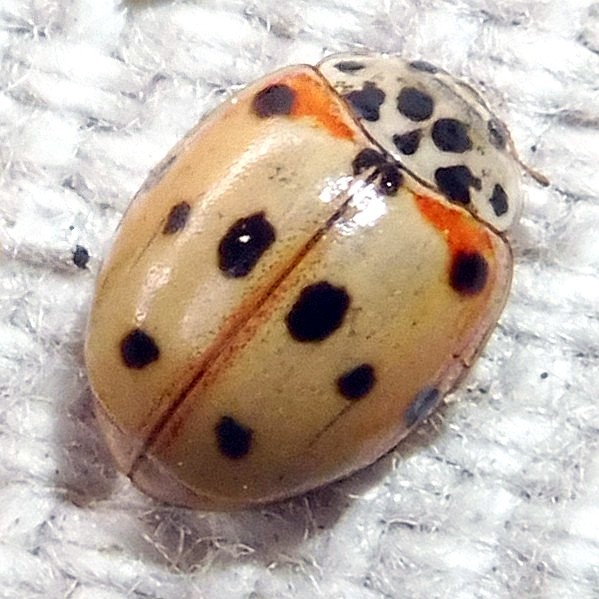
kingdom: Animalia
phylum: Arthropoda
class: Insecta
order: Coleoptera
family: Coccinellidae
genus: Adalia
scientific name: Adalia decempunctata
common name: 10-spot ladybird
